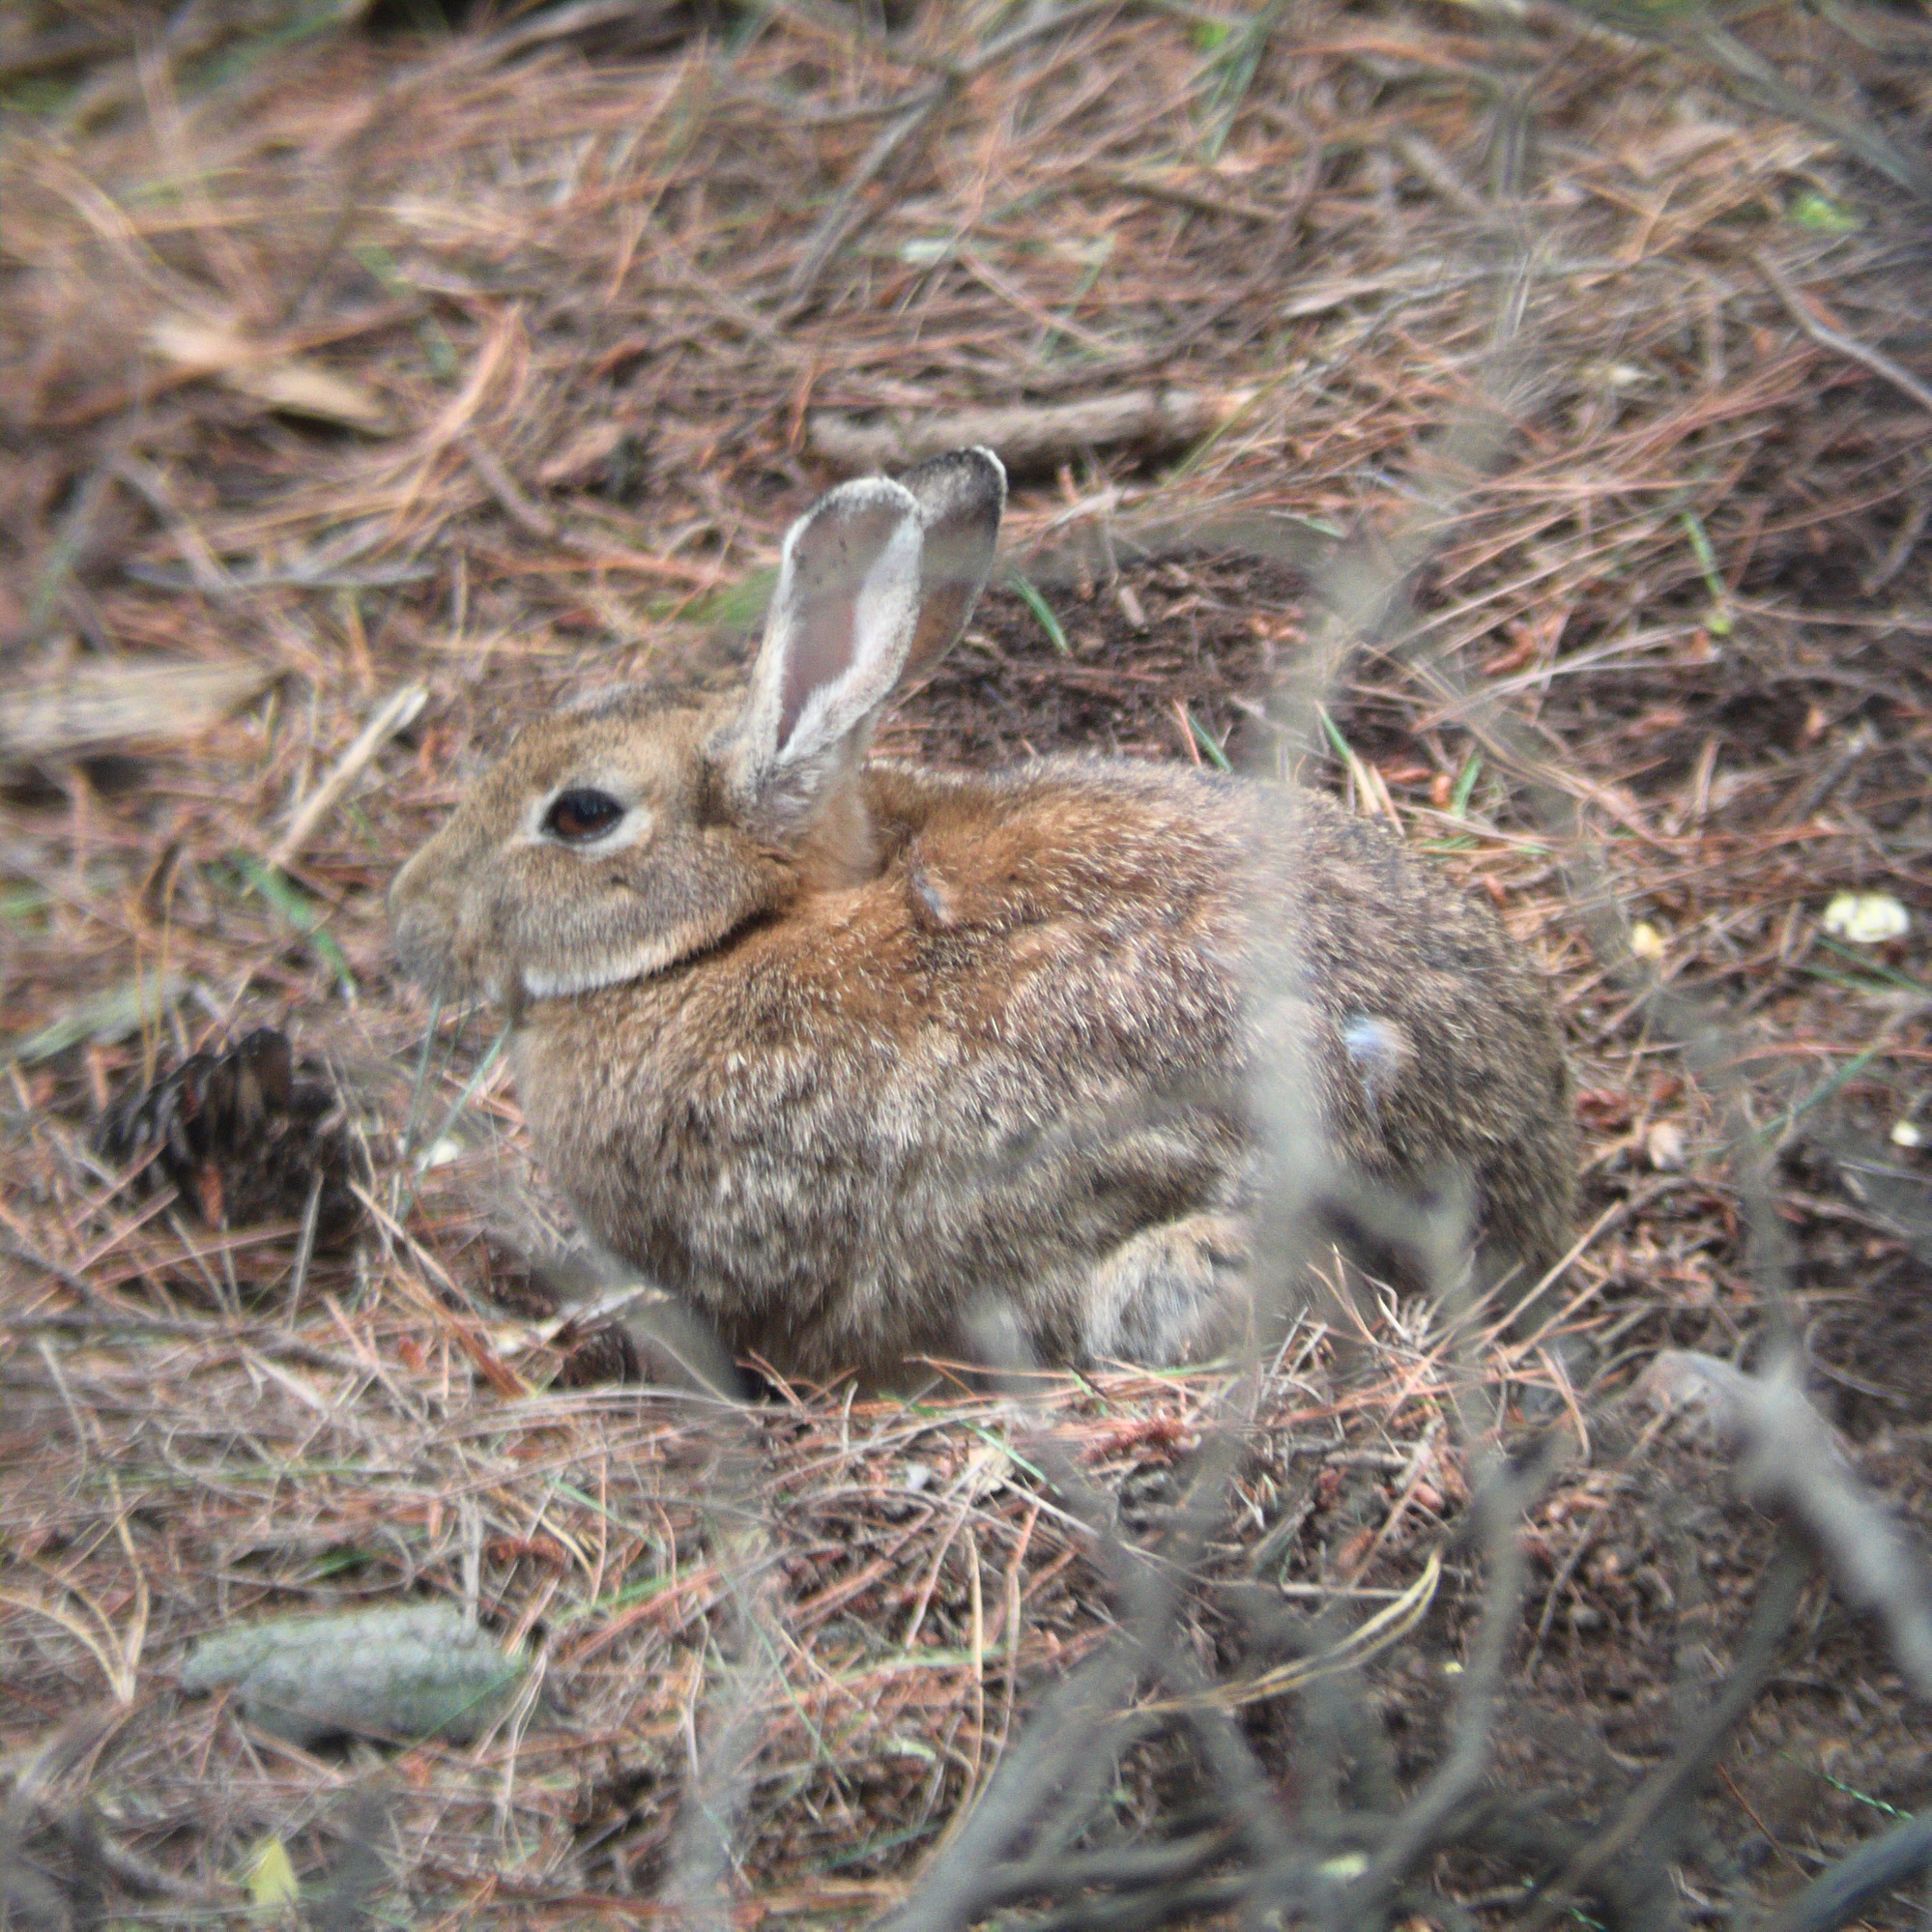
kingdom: Animalia
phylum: Chordata
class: Mammalia
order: Lagomorpha
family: Leporidae
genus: Oryctolagus
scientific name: Oryctolagus cuniculus
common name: European rabbit
